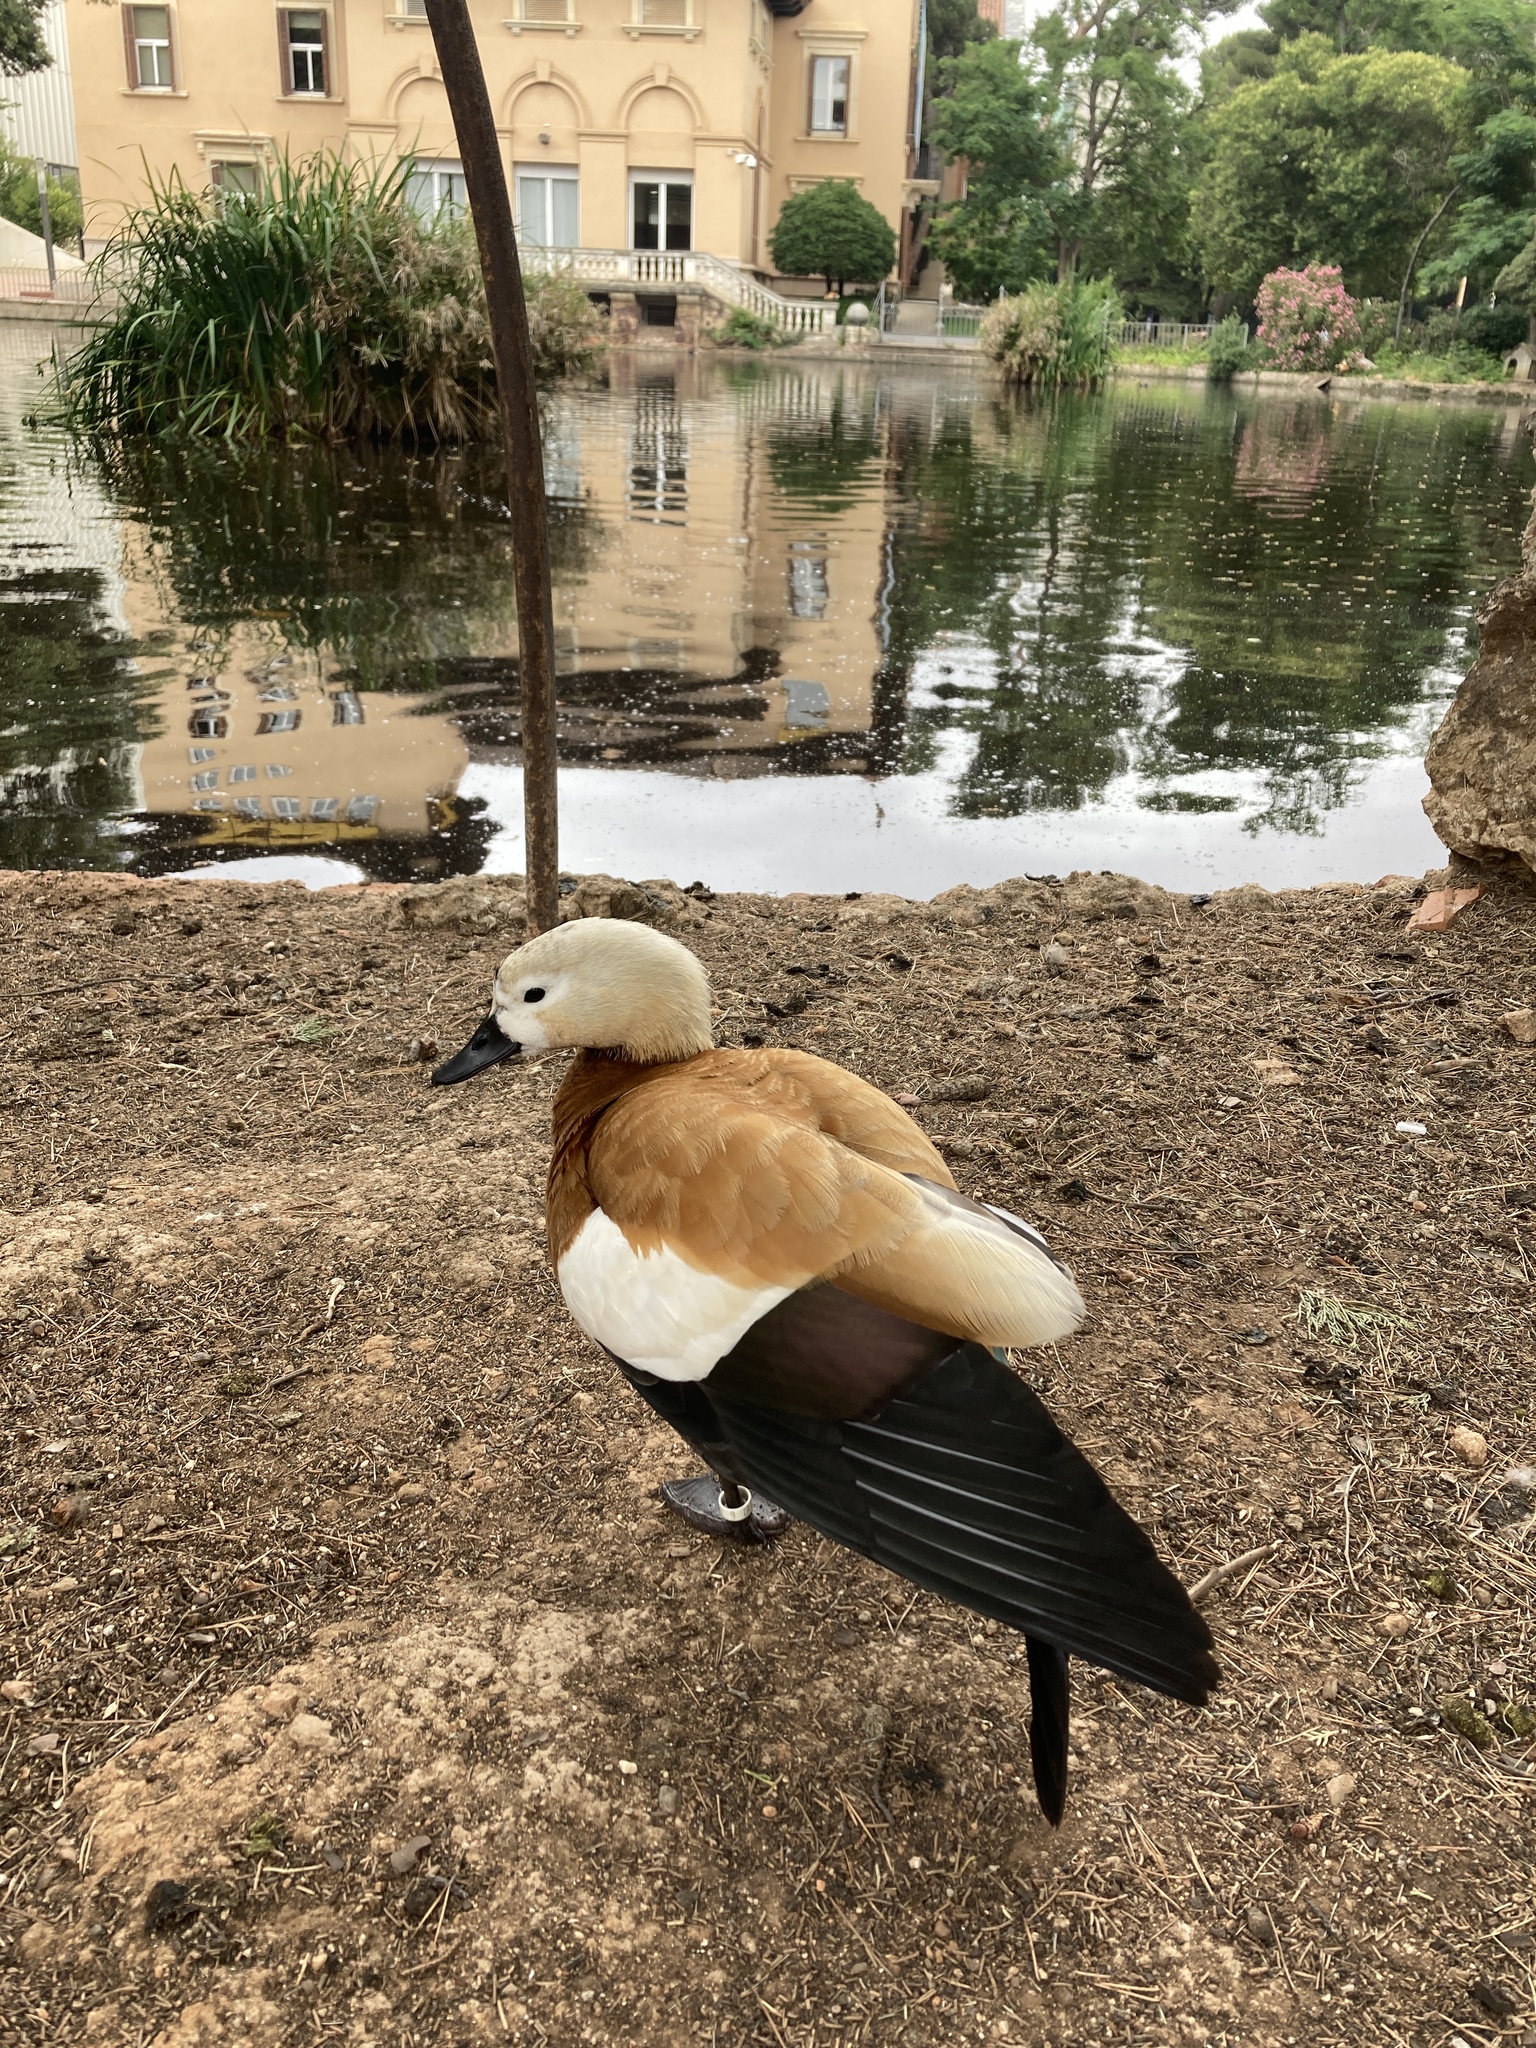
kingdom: Animalia
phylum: Chordata
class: Aves
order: Anseriformes
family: Anatidae
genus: Tadorna
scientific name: Tadorna ferruginea
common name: Ruddy shelduck
